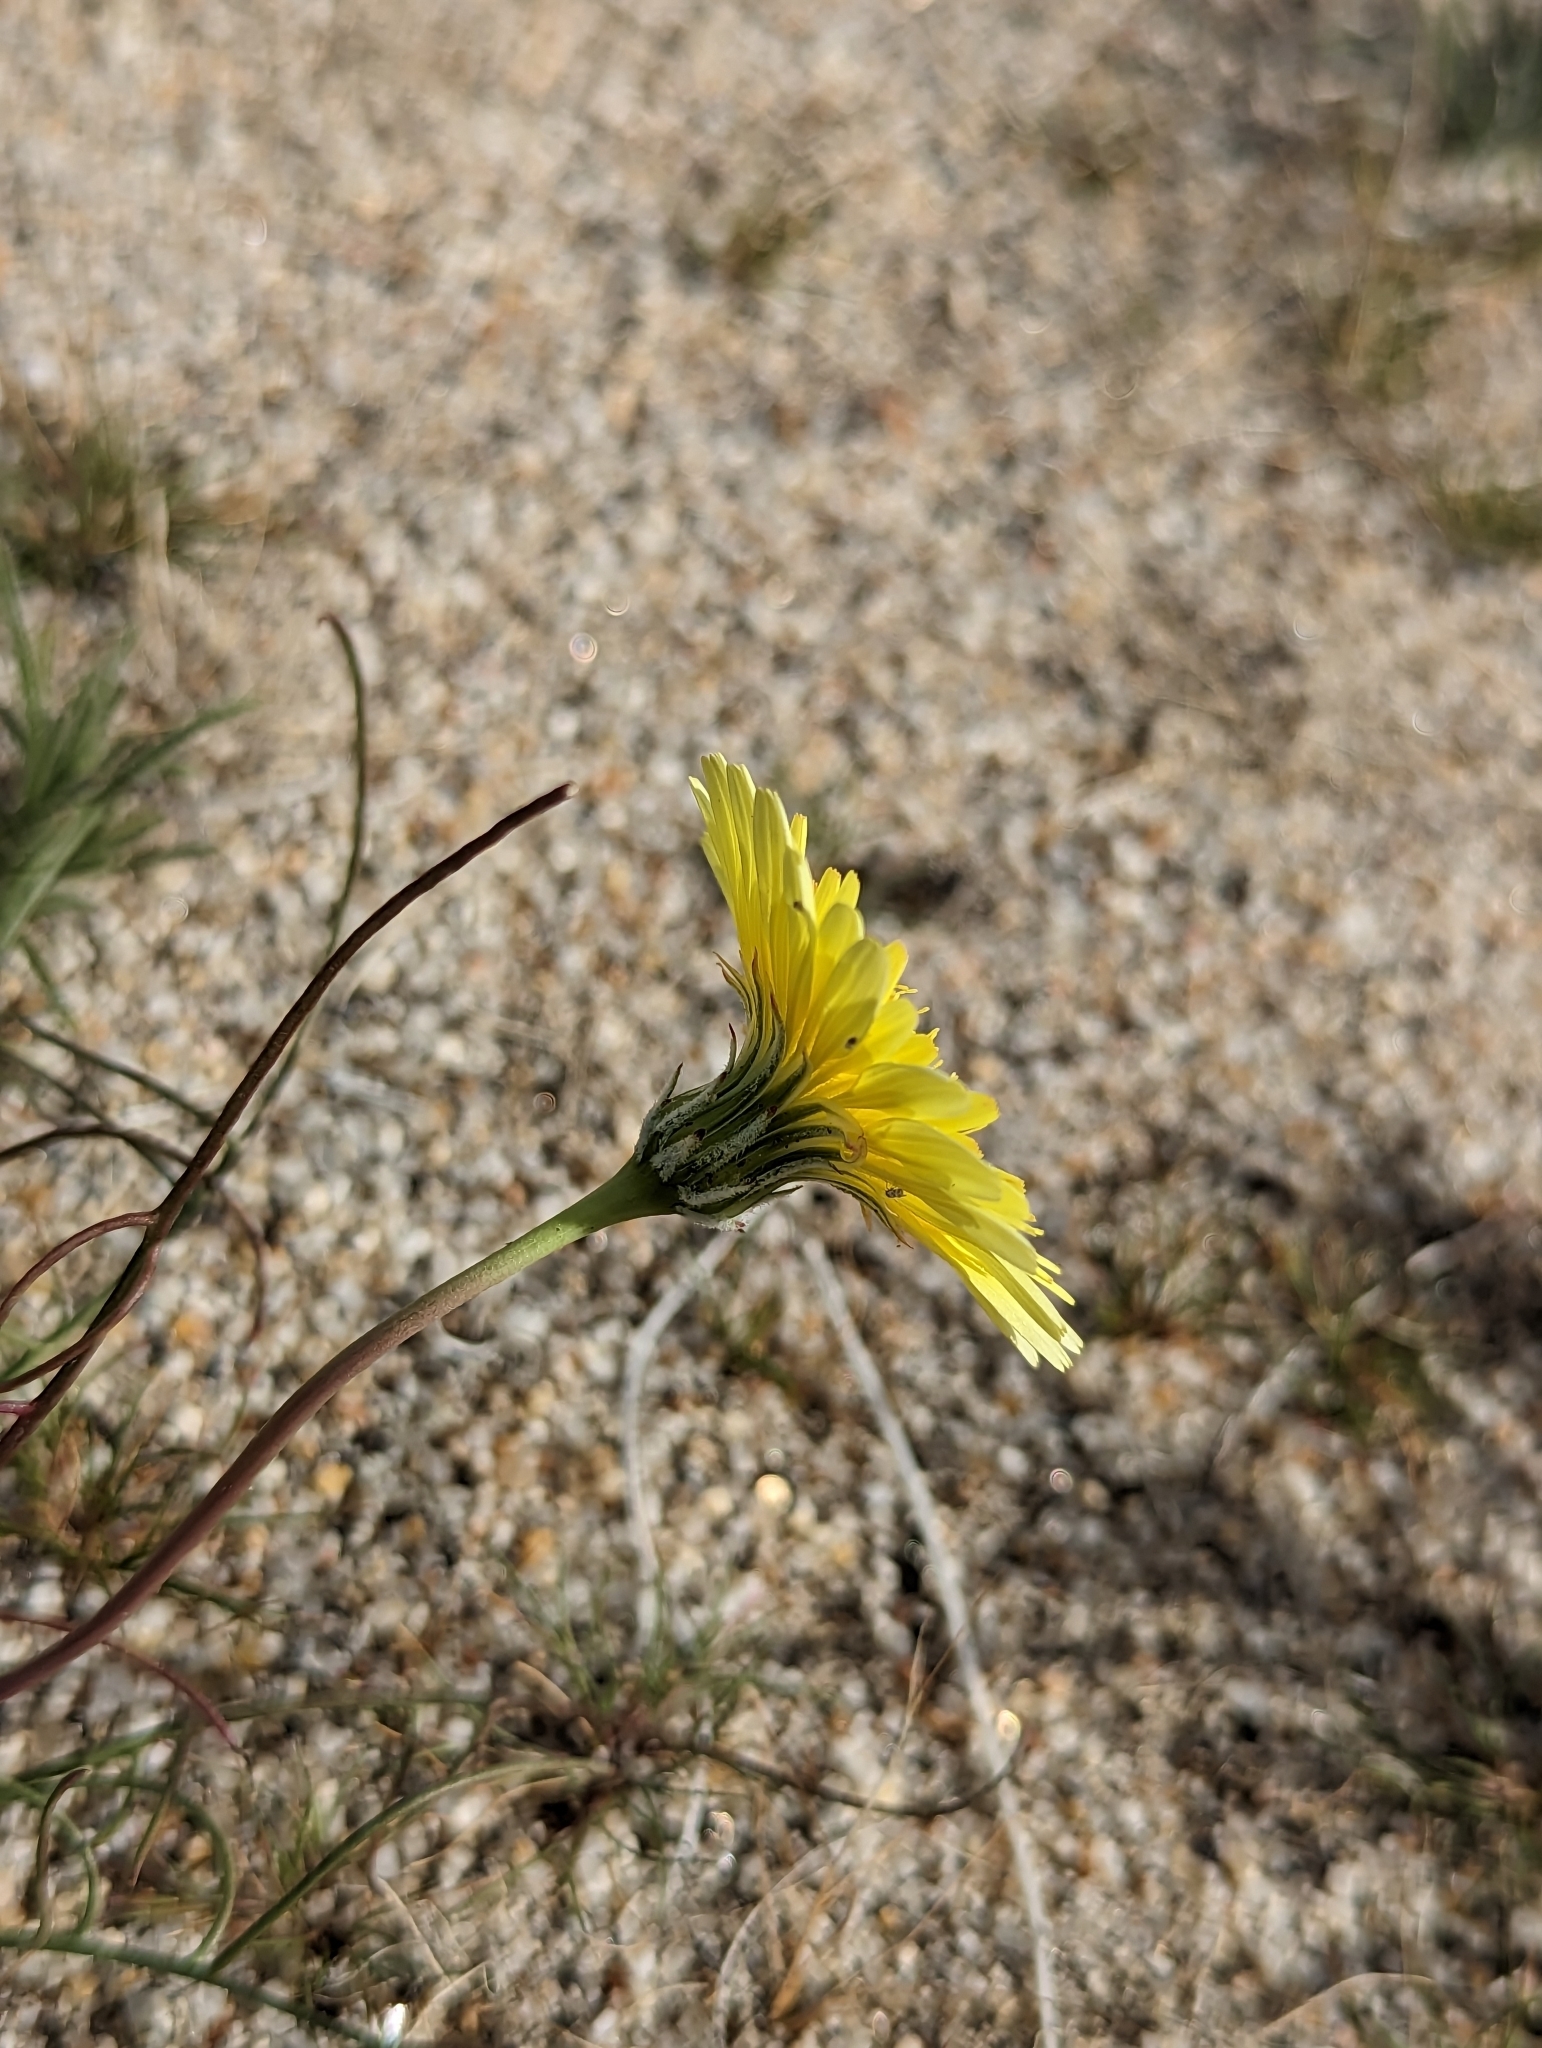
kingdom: Plantae
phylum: Tracheophyta
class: Magnoliopsida
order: Asterales
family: Asteraceae
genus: Malacothrix
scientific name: Malacothrix glabrata
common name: Smooth desert-dandelion
